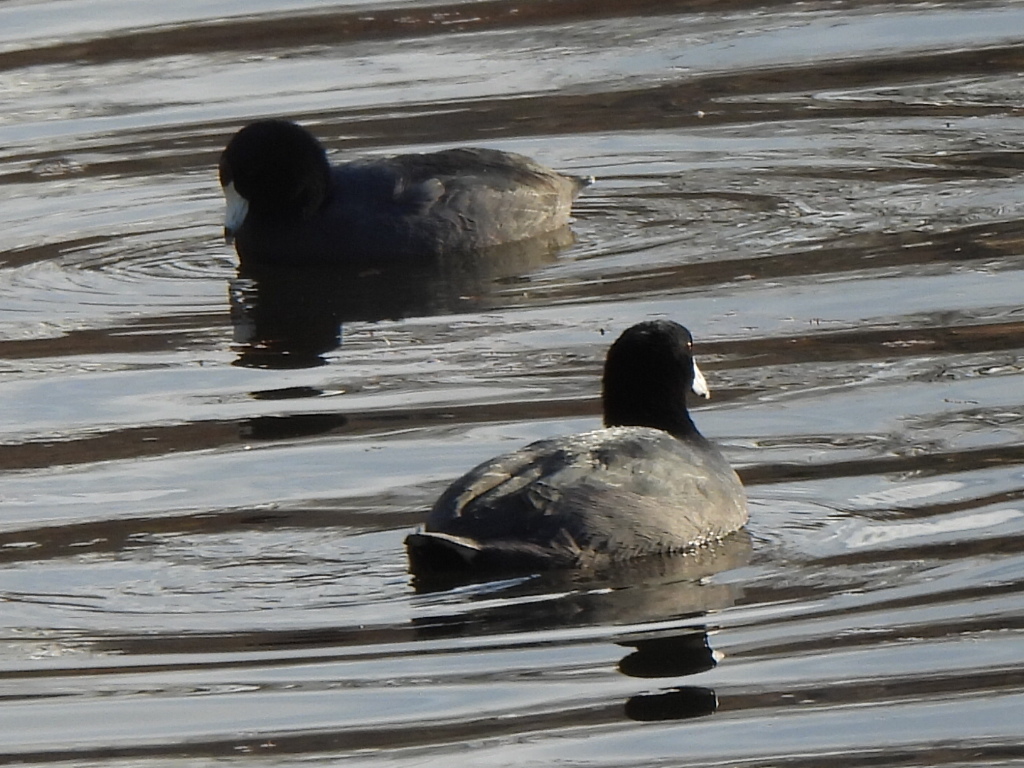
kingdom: Animalia
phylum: Chordata
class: Aves
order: Gruiformes
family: Rallidae
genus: Fulica
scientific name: Fulica americana
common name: American coot
